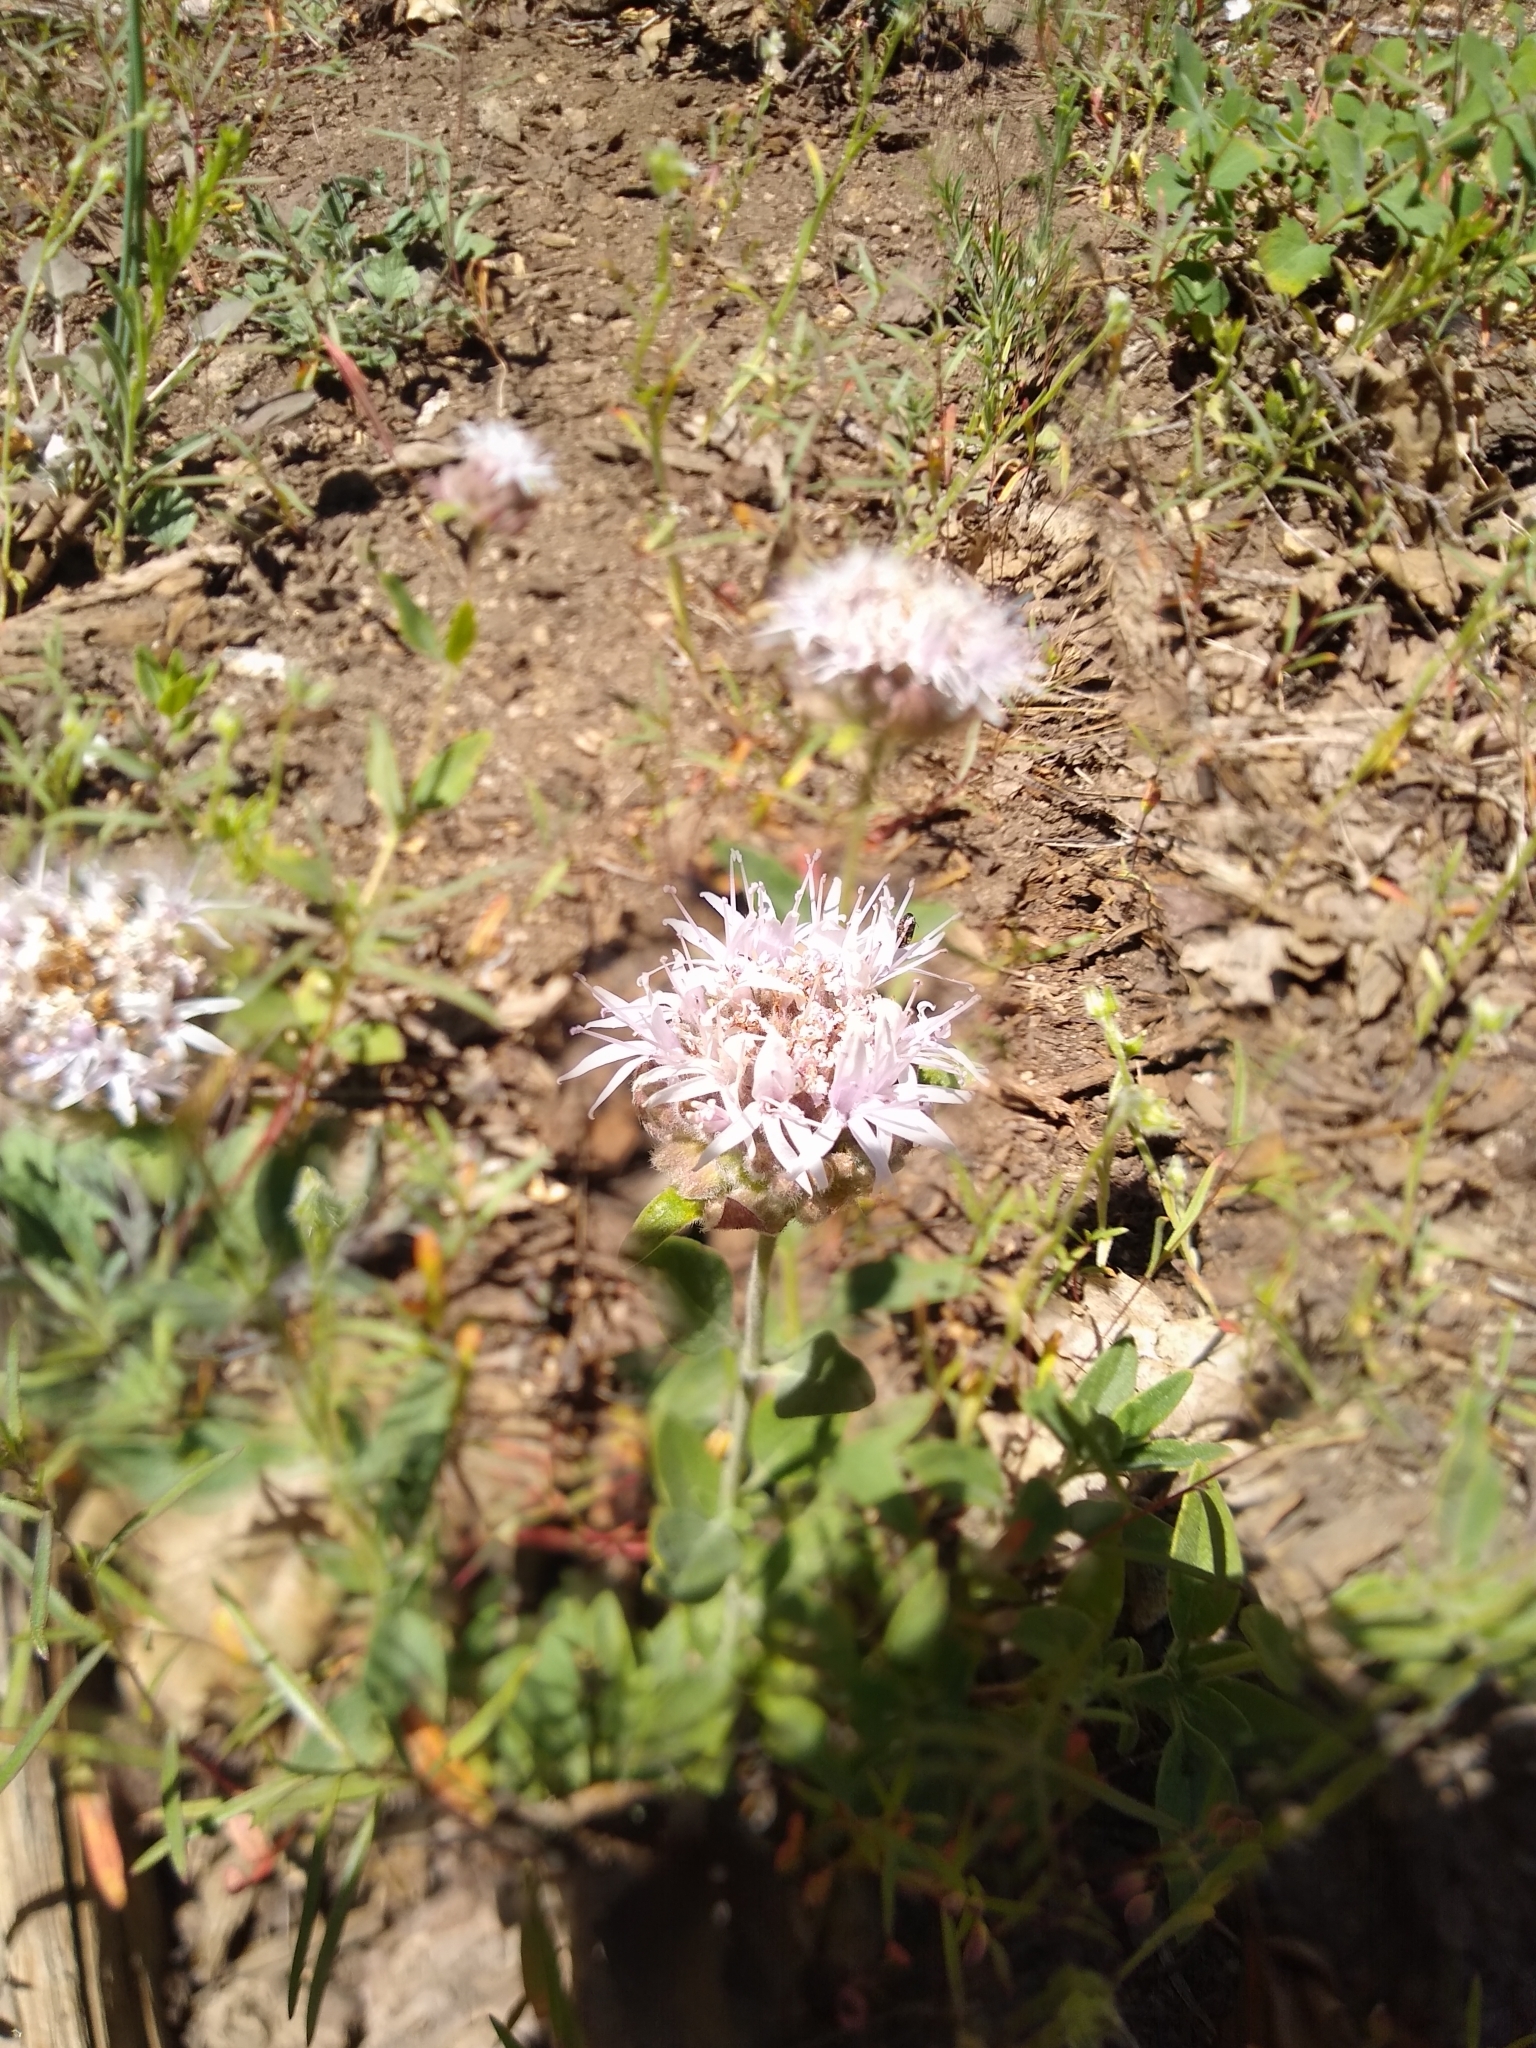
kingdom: Plantae
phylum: Tracheophyta
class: Magnoliopsida
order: Lamiales
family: Lamiaceae
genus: Monardella
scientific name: Monardella odoratissima
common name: Pacific monardella
